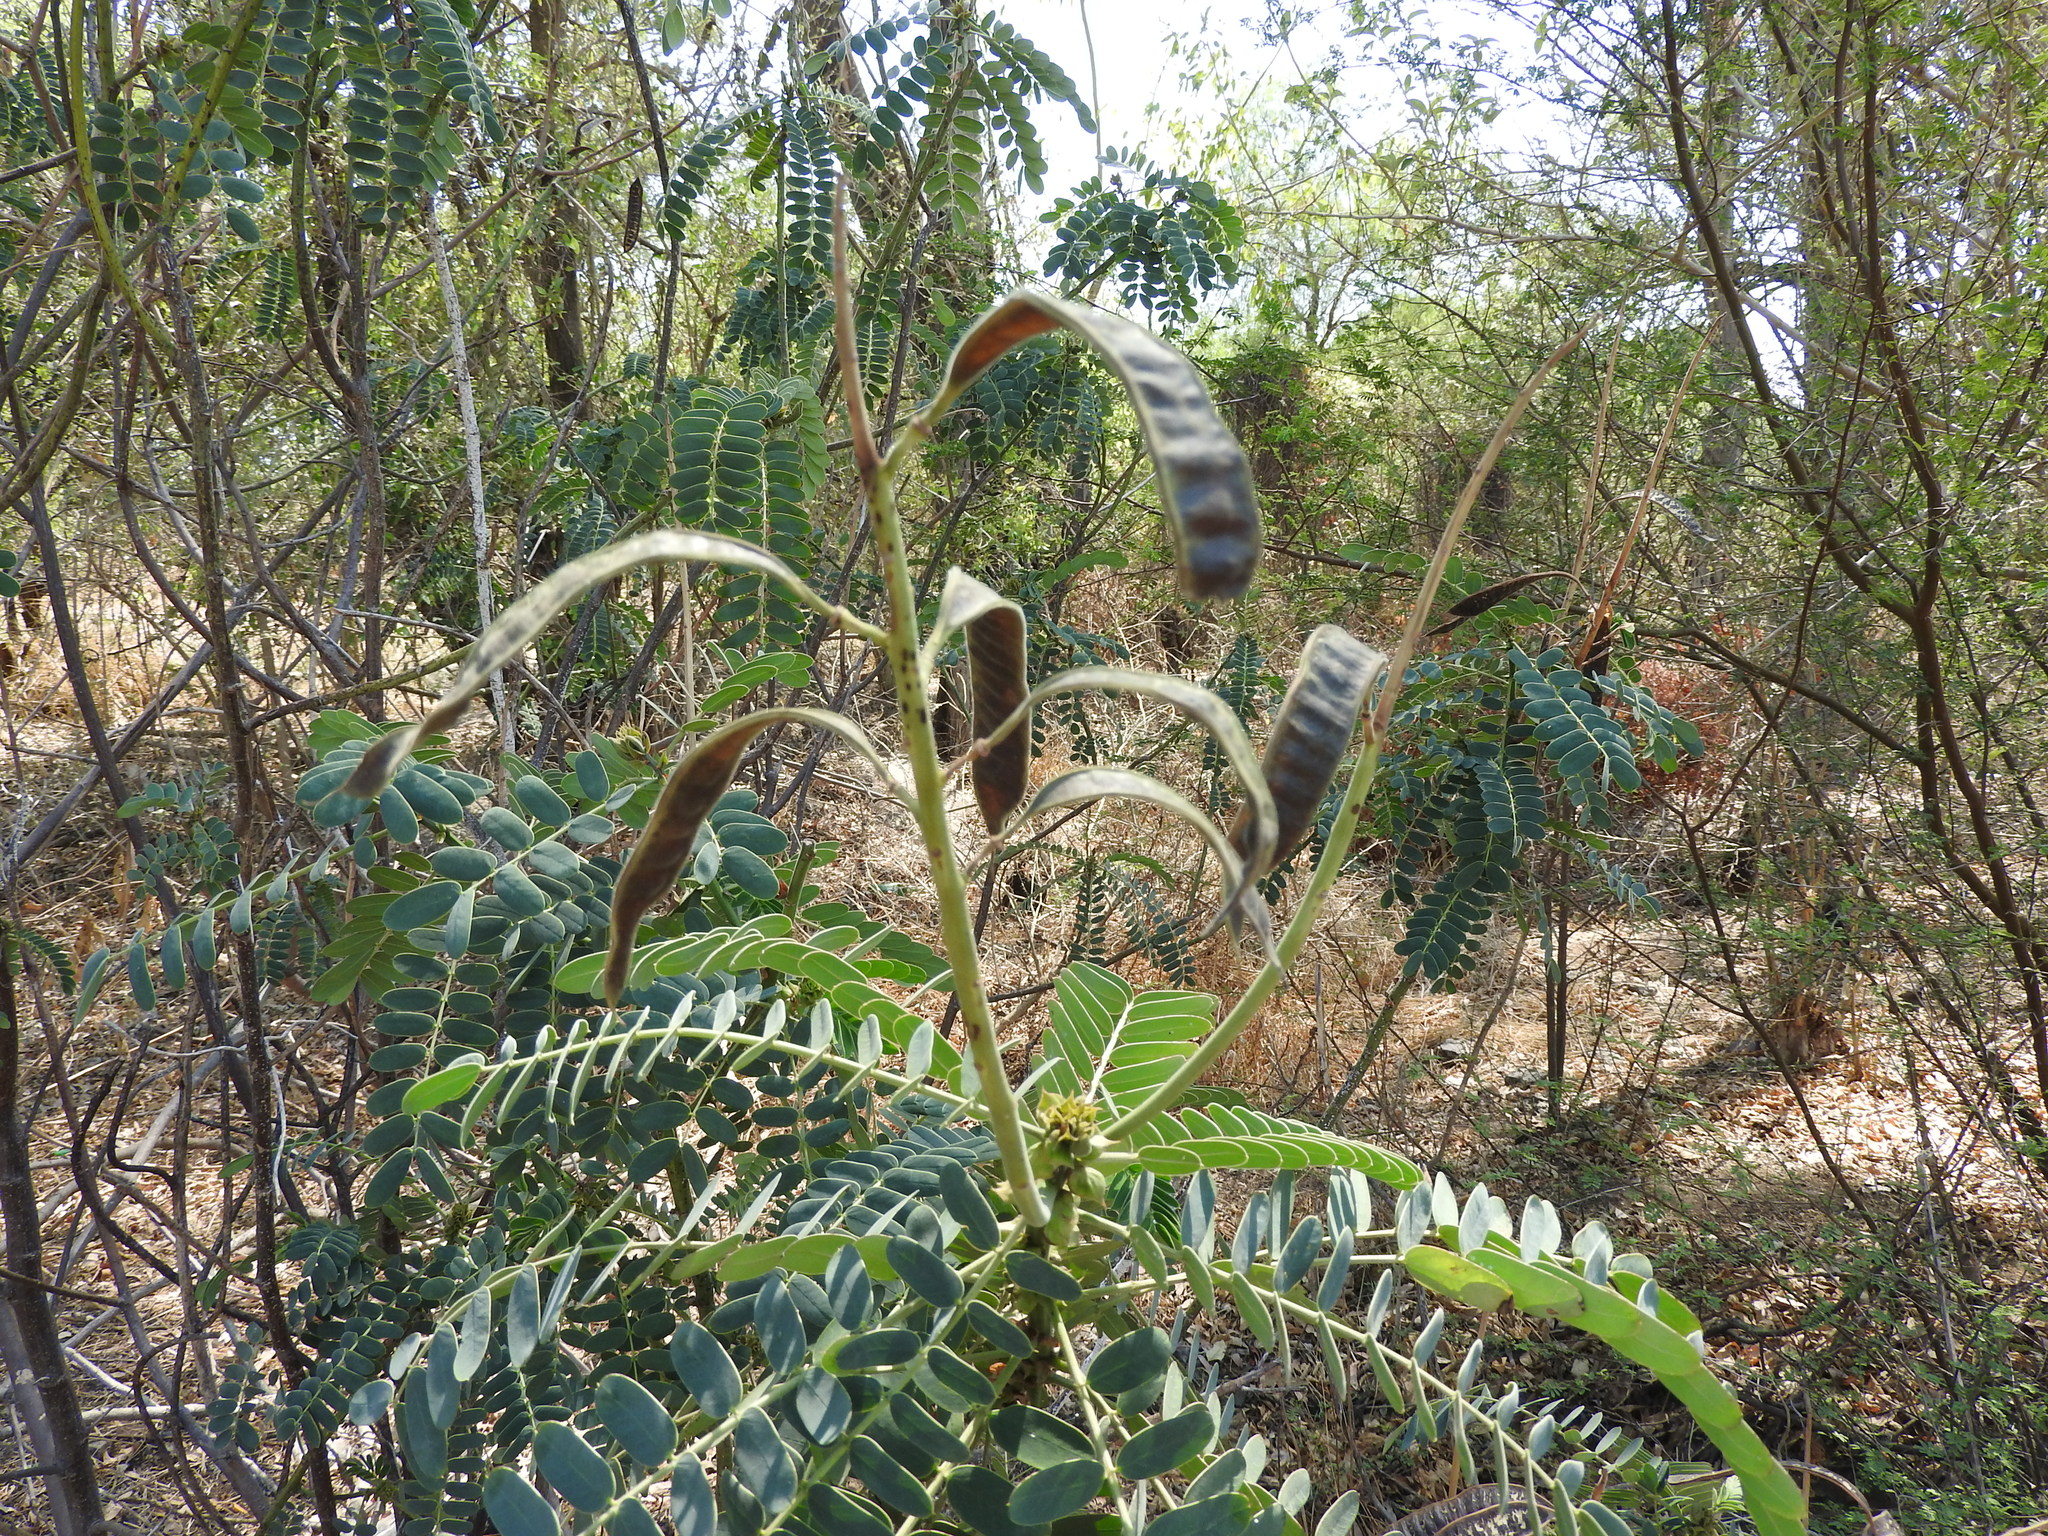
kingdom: Plantae
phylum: Tracheophyta
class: Magnoliopsida
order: Fabales
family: Fabaceae
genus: Senna
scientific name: Senna didymobotrya
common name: African senna
